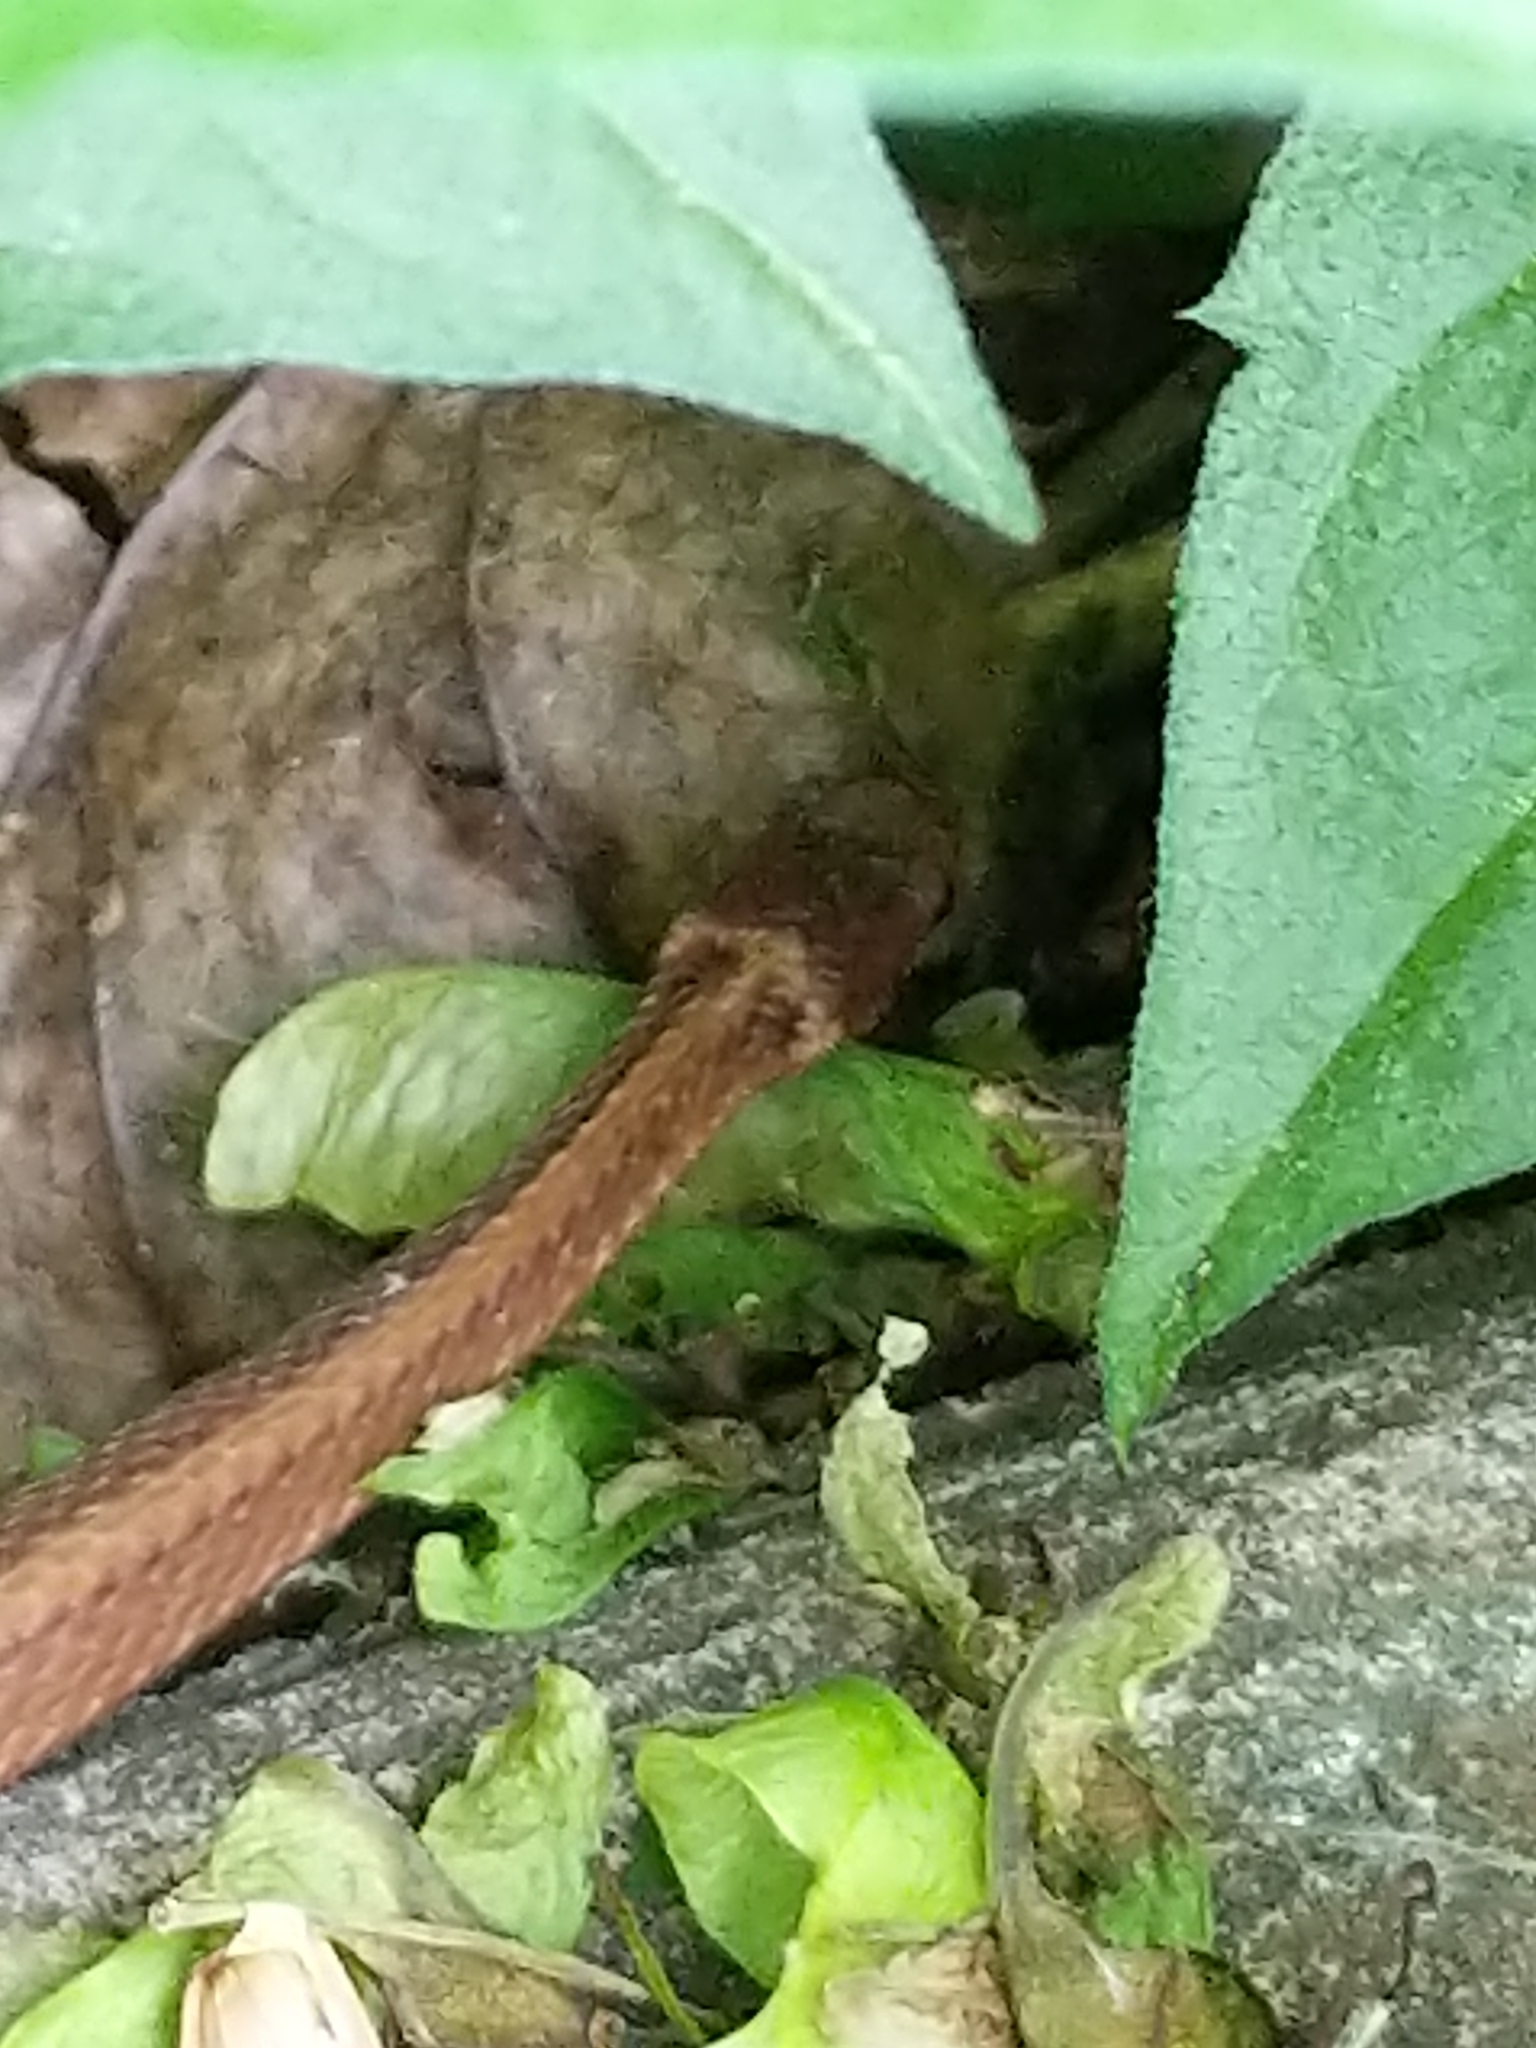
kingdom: Animalia
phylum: Chordata
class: Squamata
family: Colubridae
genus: Storeria
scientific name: Storeria occipitomaculata
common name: Redbelly snake
